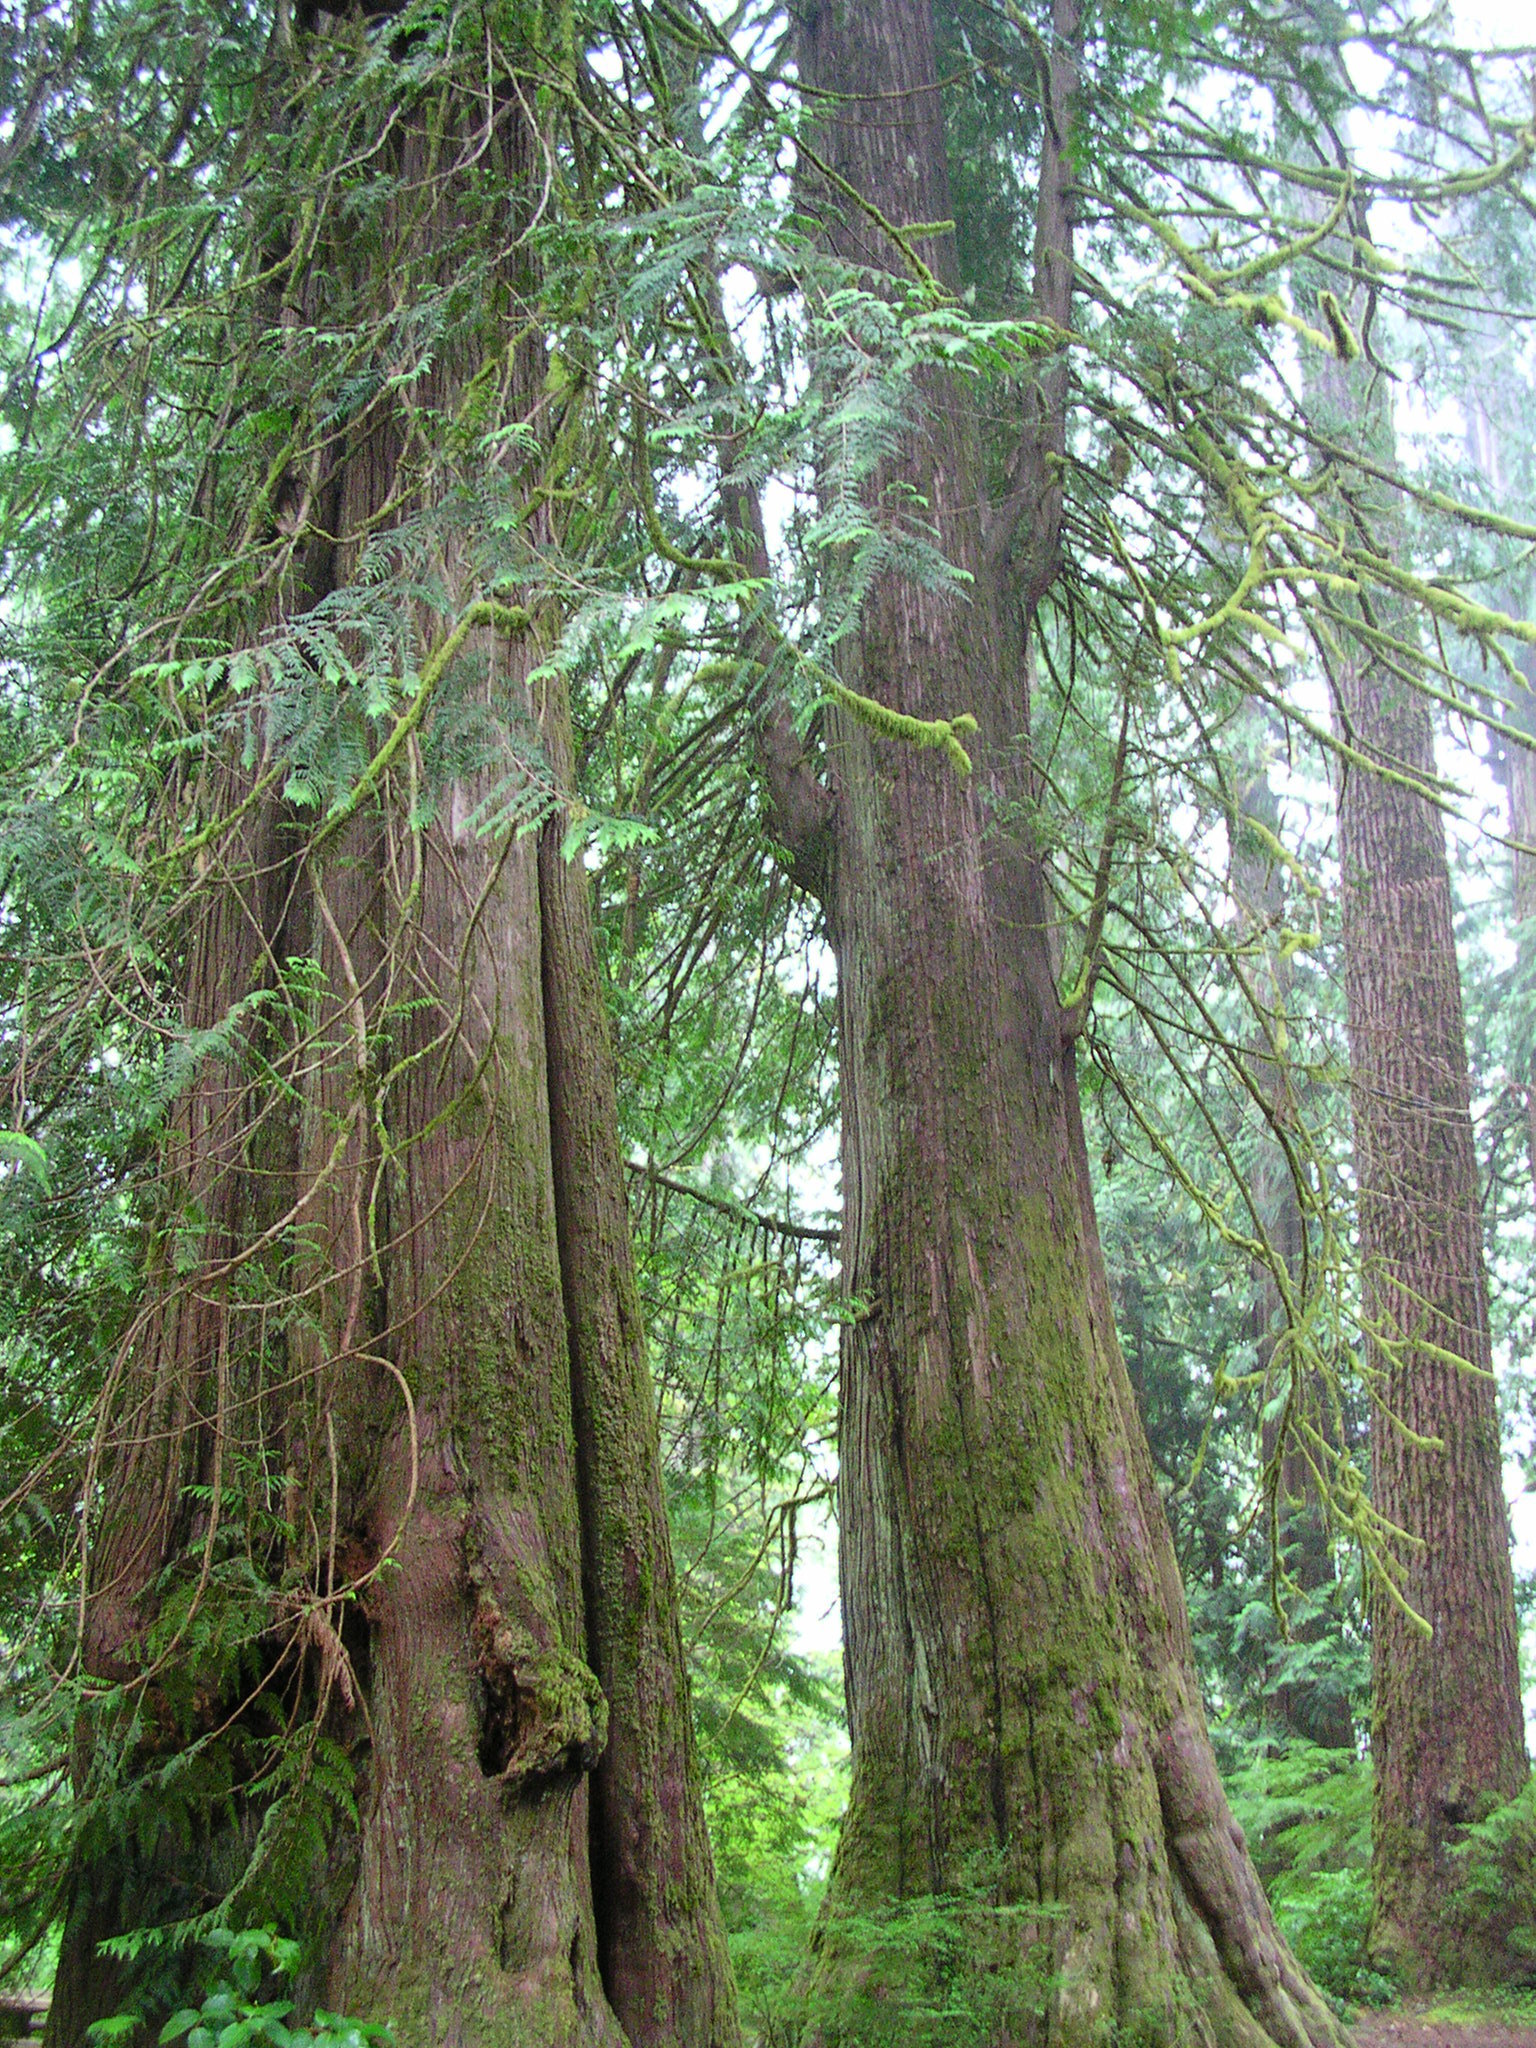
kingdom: Plantae
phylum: Tracheophyta
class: Pinopsida
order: Pinales
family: Cupressaceae
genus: Thuja
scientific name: Thuja plicata
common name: Western red-cedar
